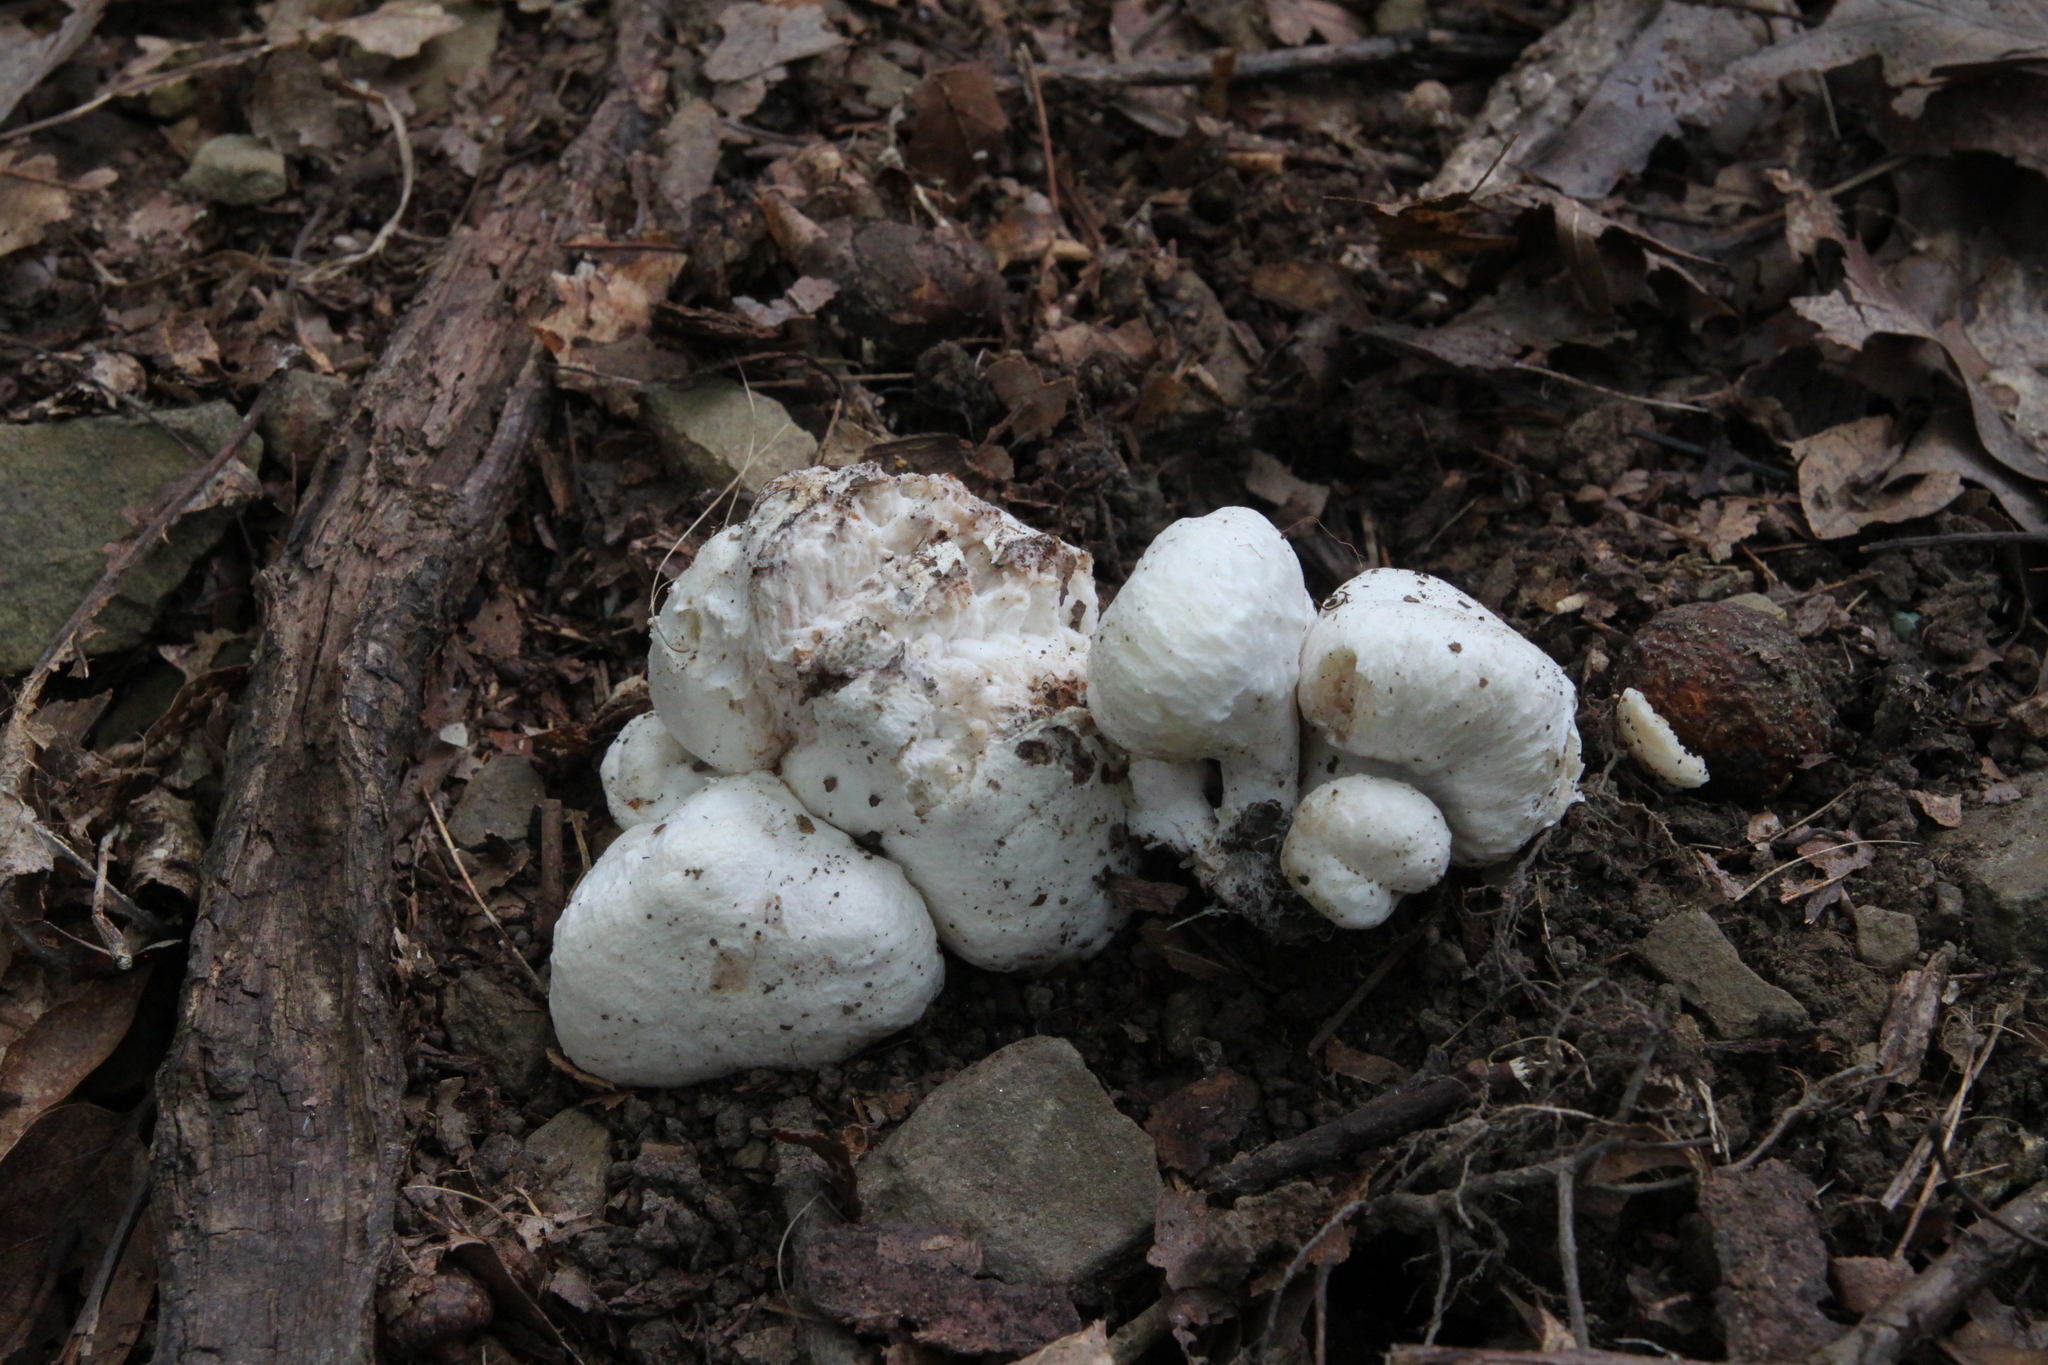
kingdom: Fungi
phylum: Basidiomycota
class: Agaricomycetes
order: Agaricales
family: Entolomataceae
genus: Entoloma
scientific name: Entoloma abortivum
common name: Aborted entoloma
